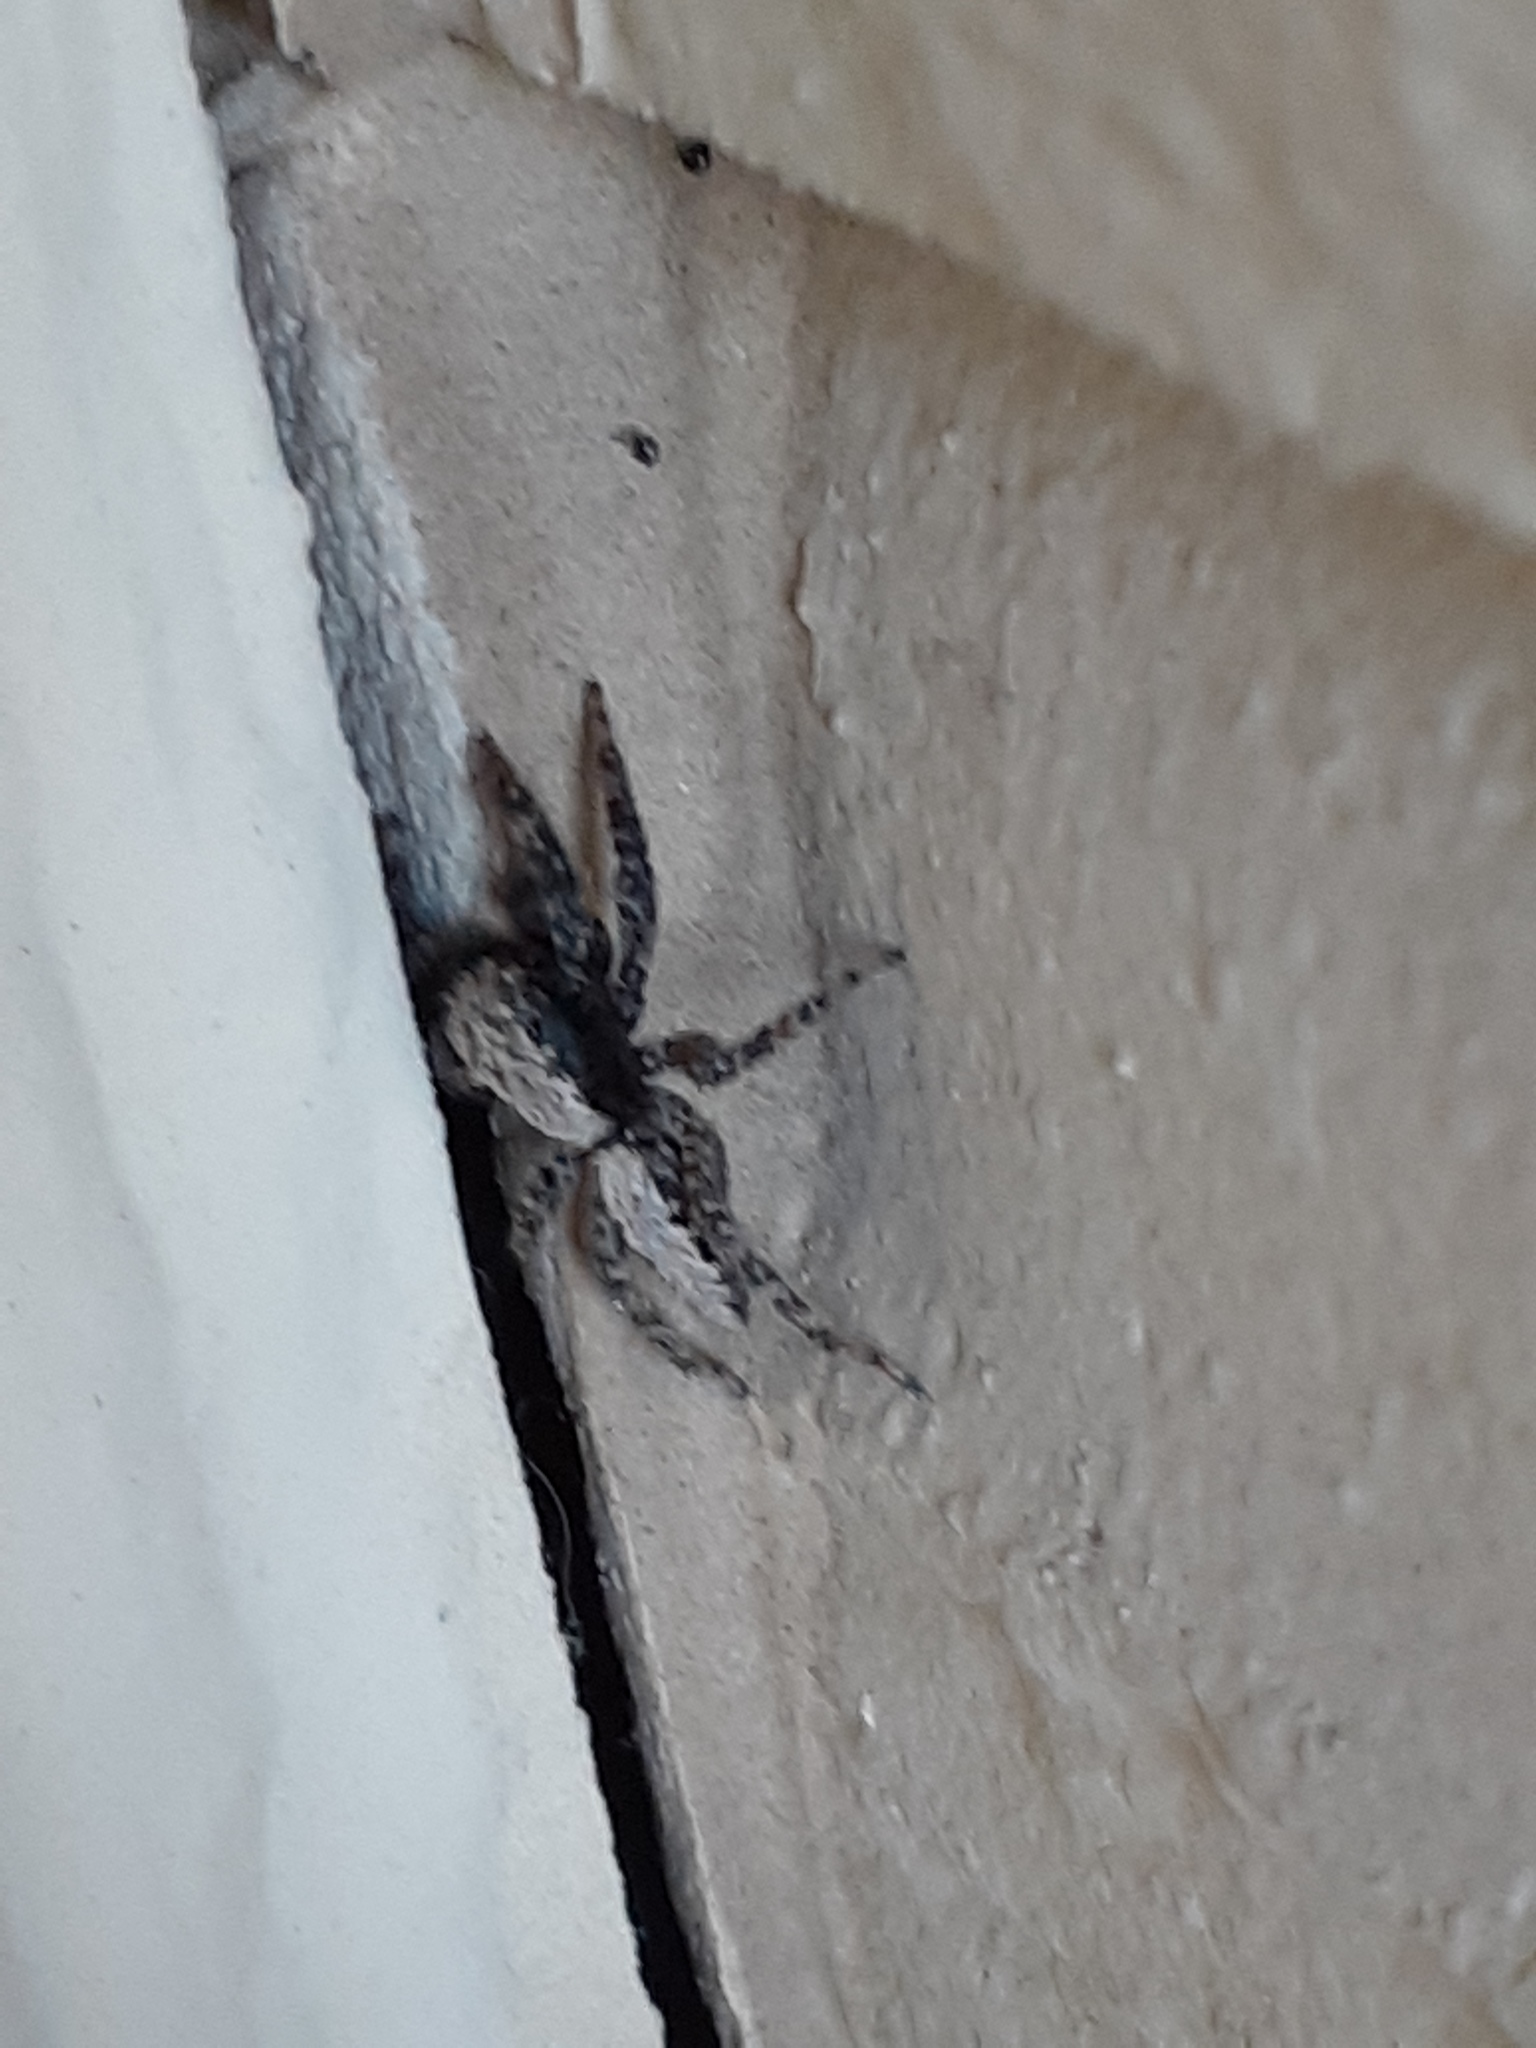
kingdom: Animalia
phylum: Arthropoda
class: Arachnida
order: Araneae
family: Salticidae
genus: Platycryptus
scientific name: Platycryptus californicus
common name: Jumping spiders
